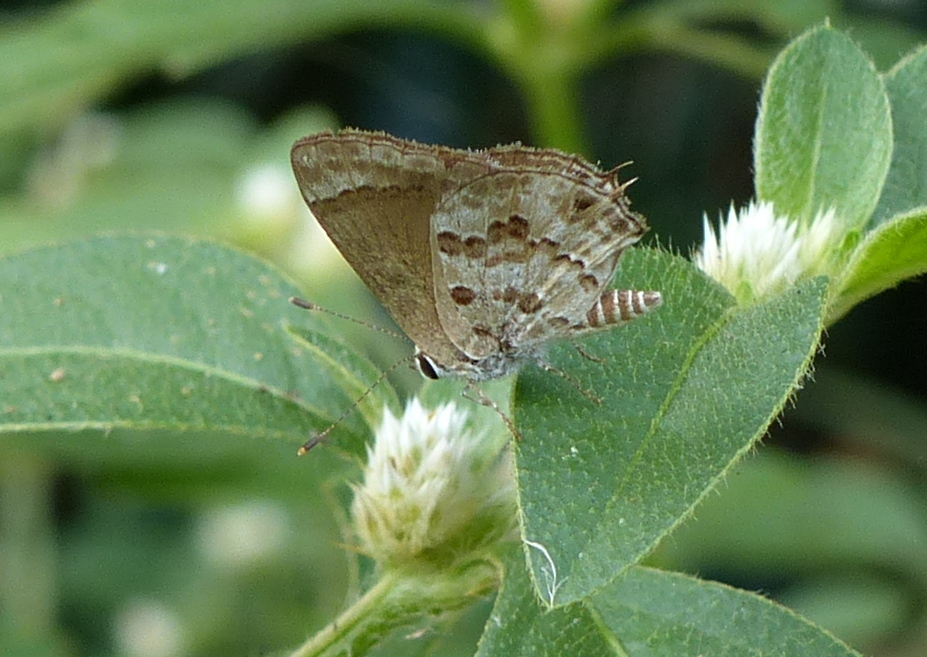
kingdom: Animalia
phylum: Arthropoda
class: Insecta
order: Lepidoptera
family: Lycaenidae
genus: Strymon
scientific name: Strymon astiocha
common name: Gray-spotted scrub-hairstreak
